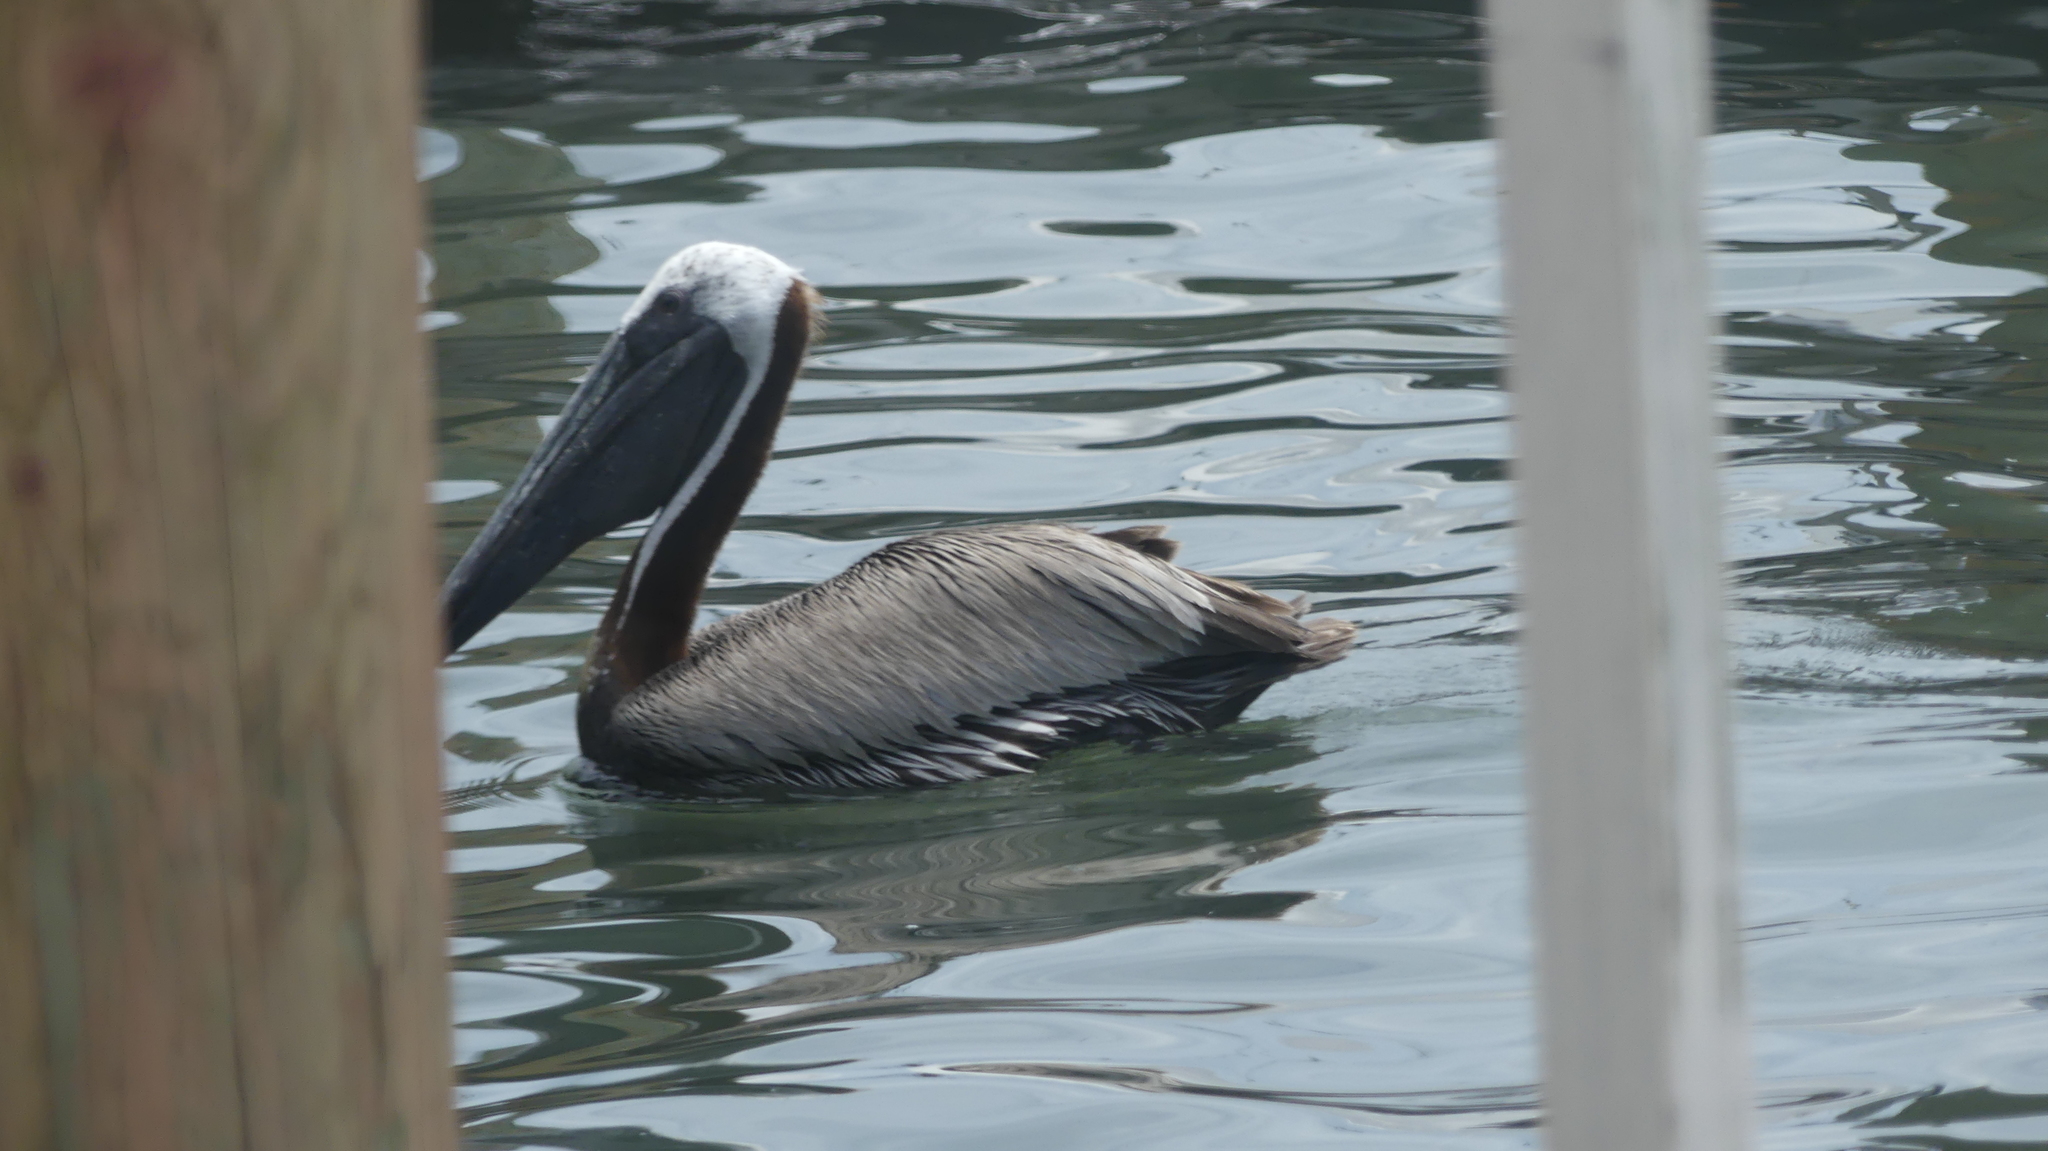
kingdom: Animalia
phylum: Chordata
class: Aves
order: Pelecaniformes
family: Pelecanidae
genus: Pelecanus
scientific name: Pelecanus occidentalis
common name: Brown pelican
